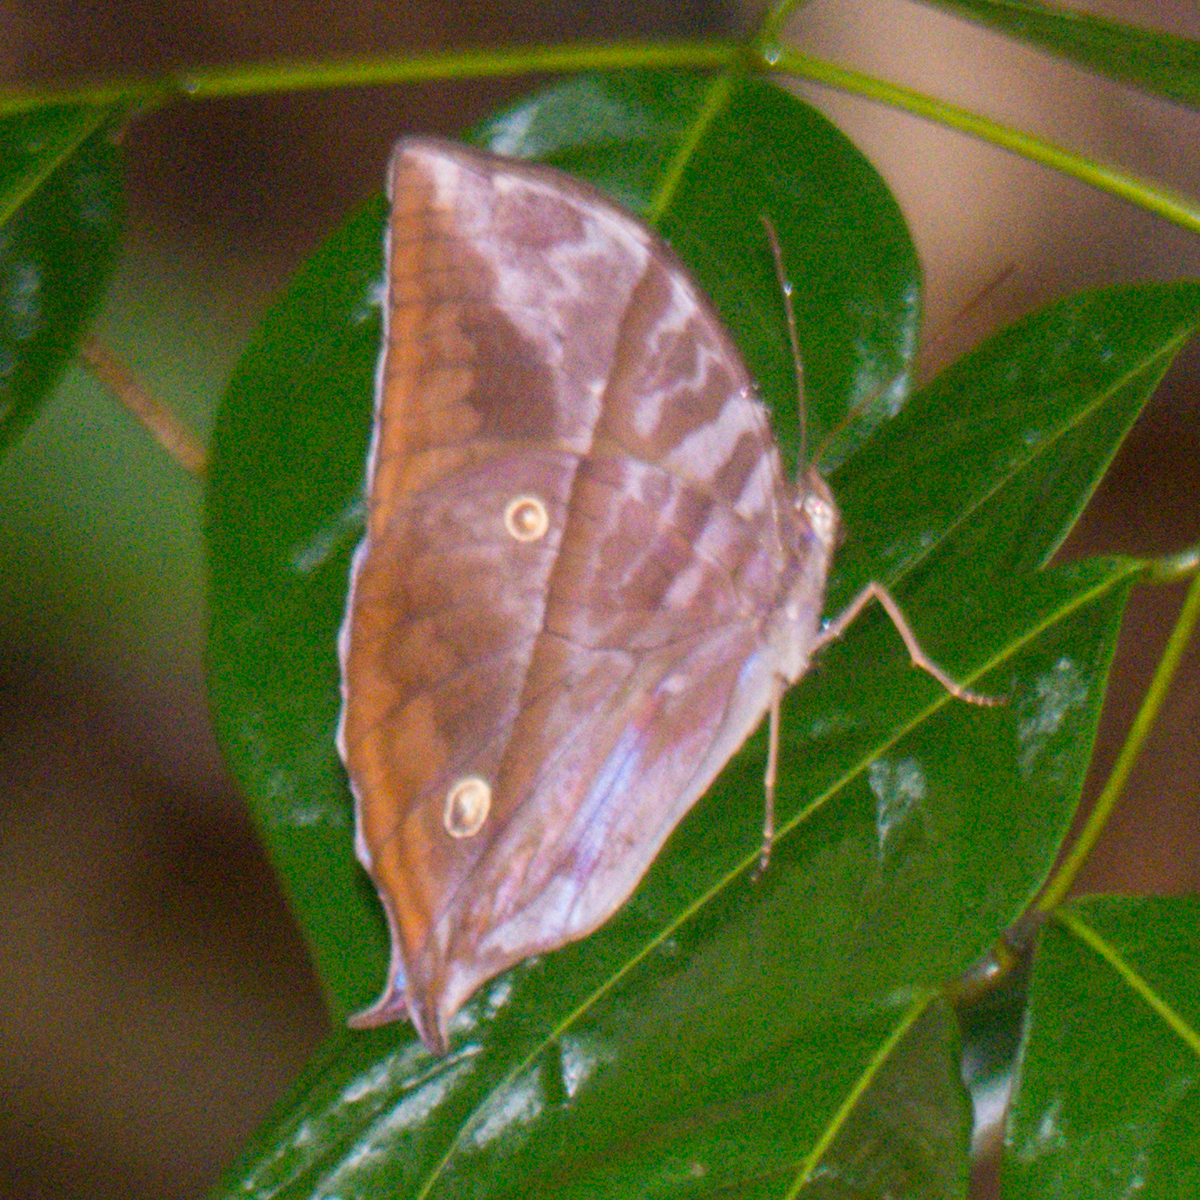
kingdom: Animalia
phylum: Arthropoda
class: Insecta
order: Lepidoptera
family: Nymphalidae
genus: Zeuxidia
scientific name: Zeuxidia
